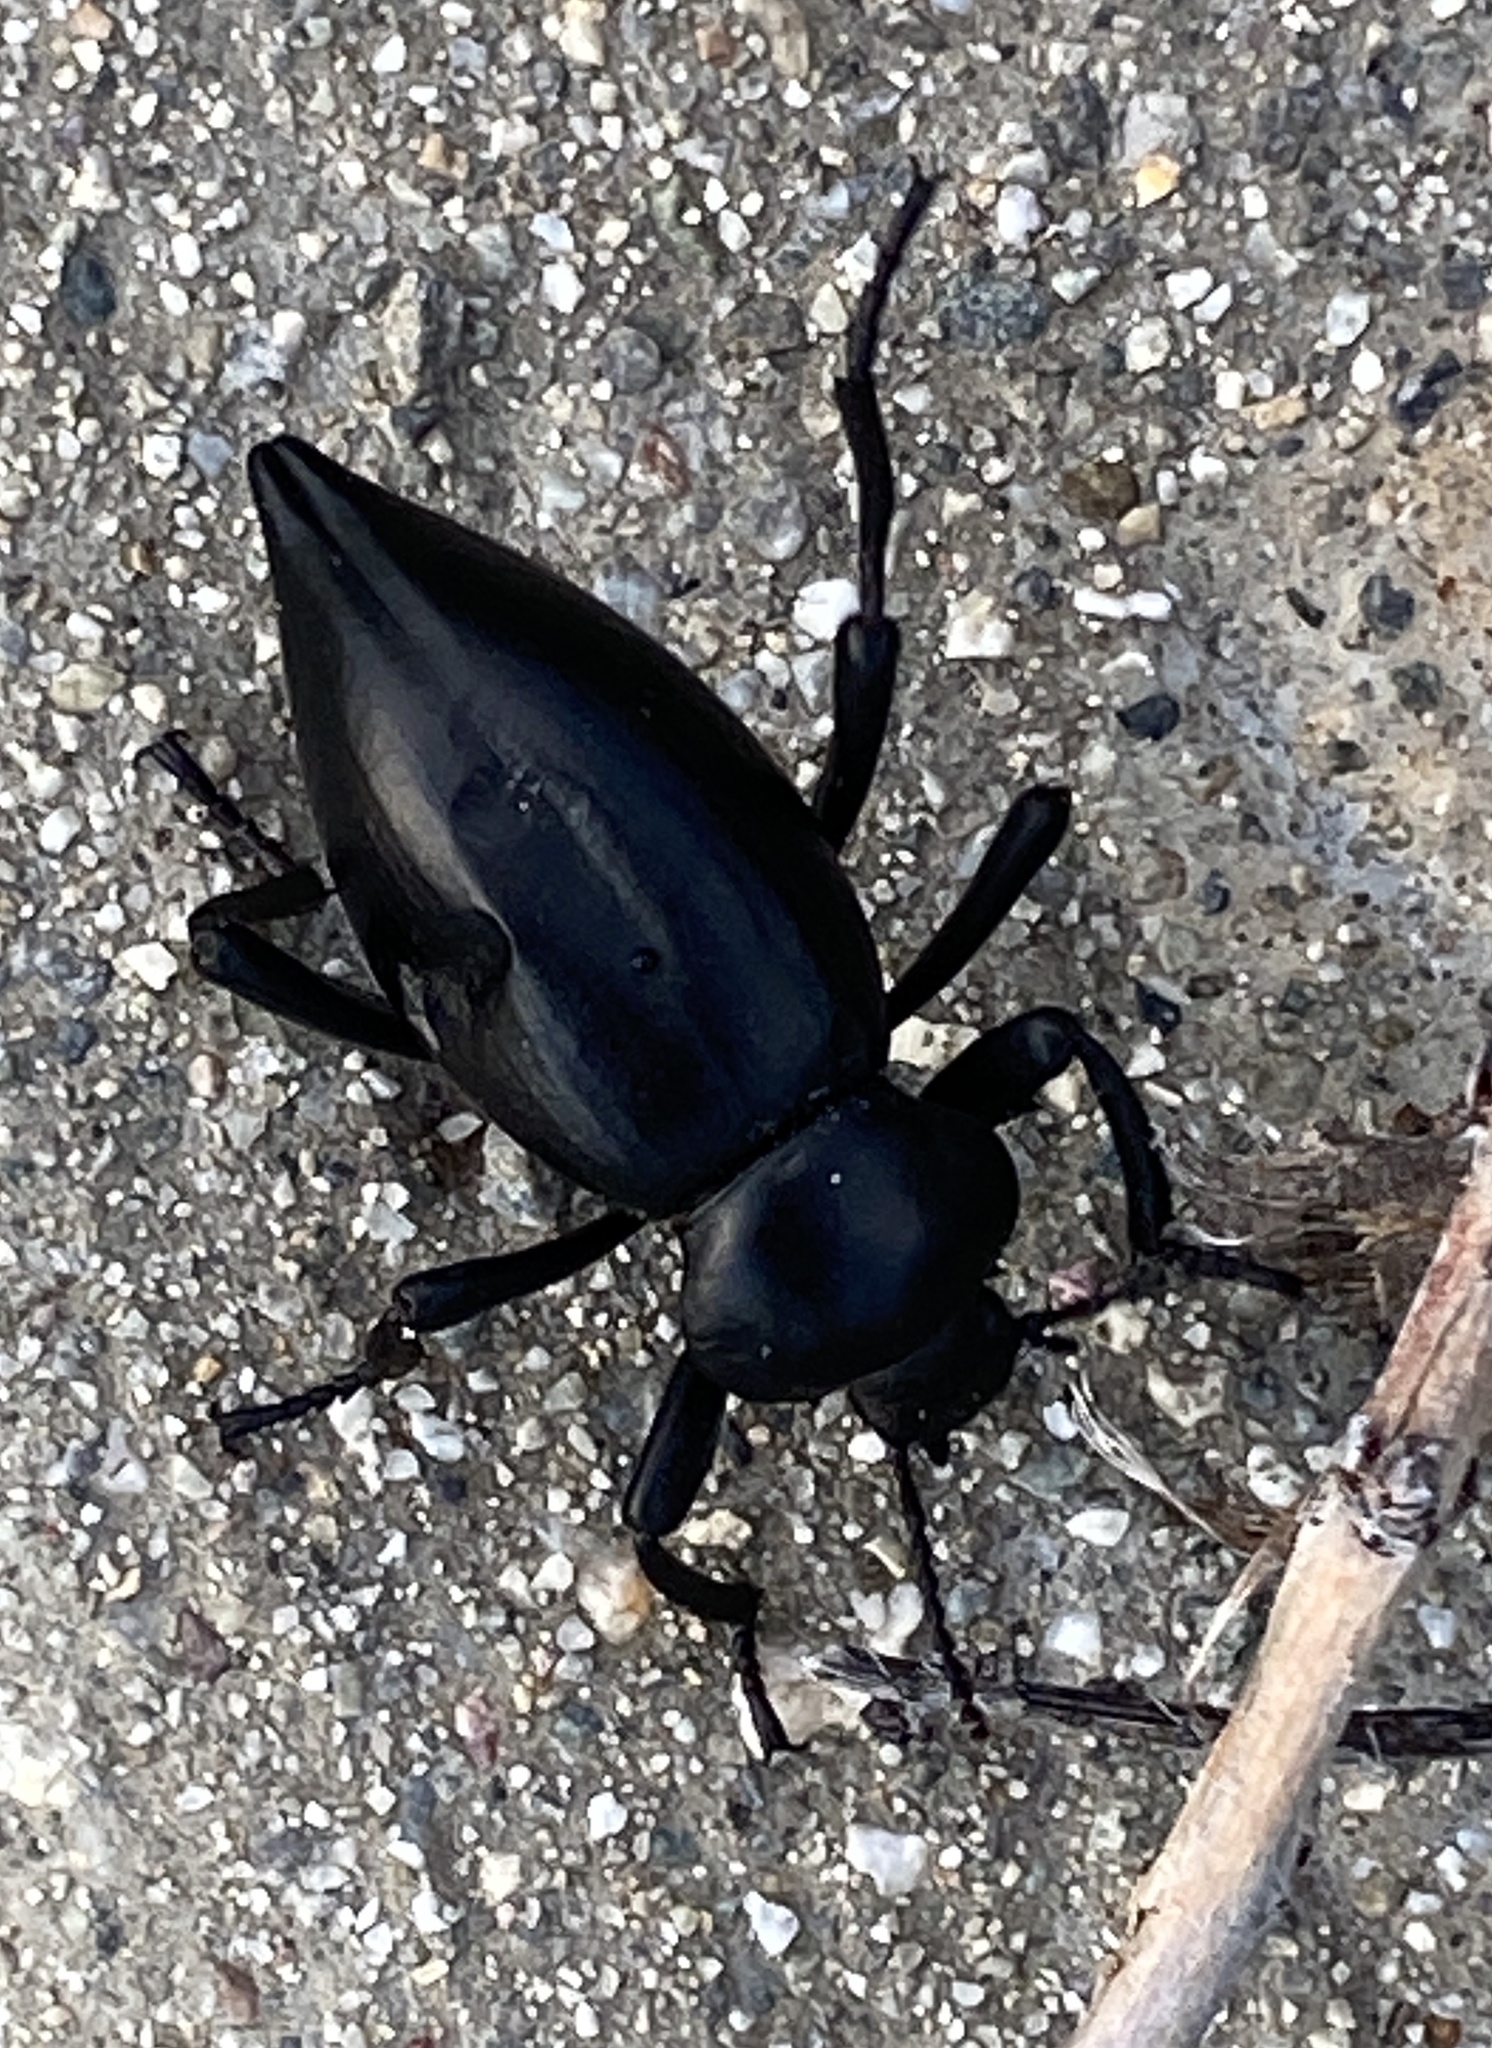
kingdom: Animalia
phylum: Arthropoda
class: Insecta
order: Coleoptera
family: Tenebrionidae
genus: Eleodes
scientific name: Eleodes acuticauda
